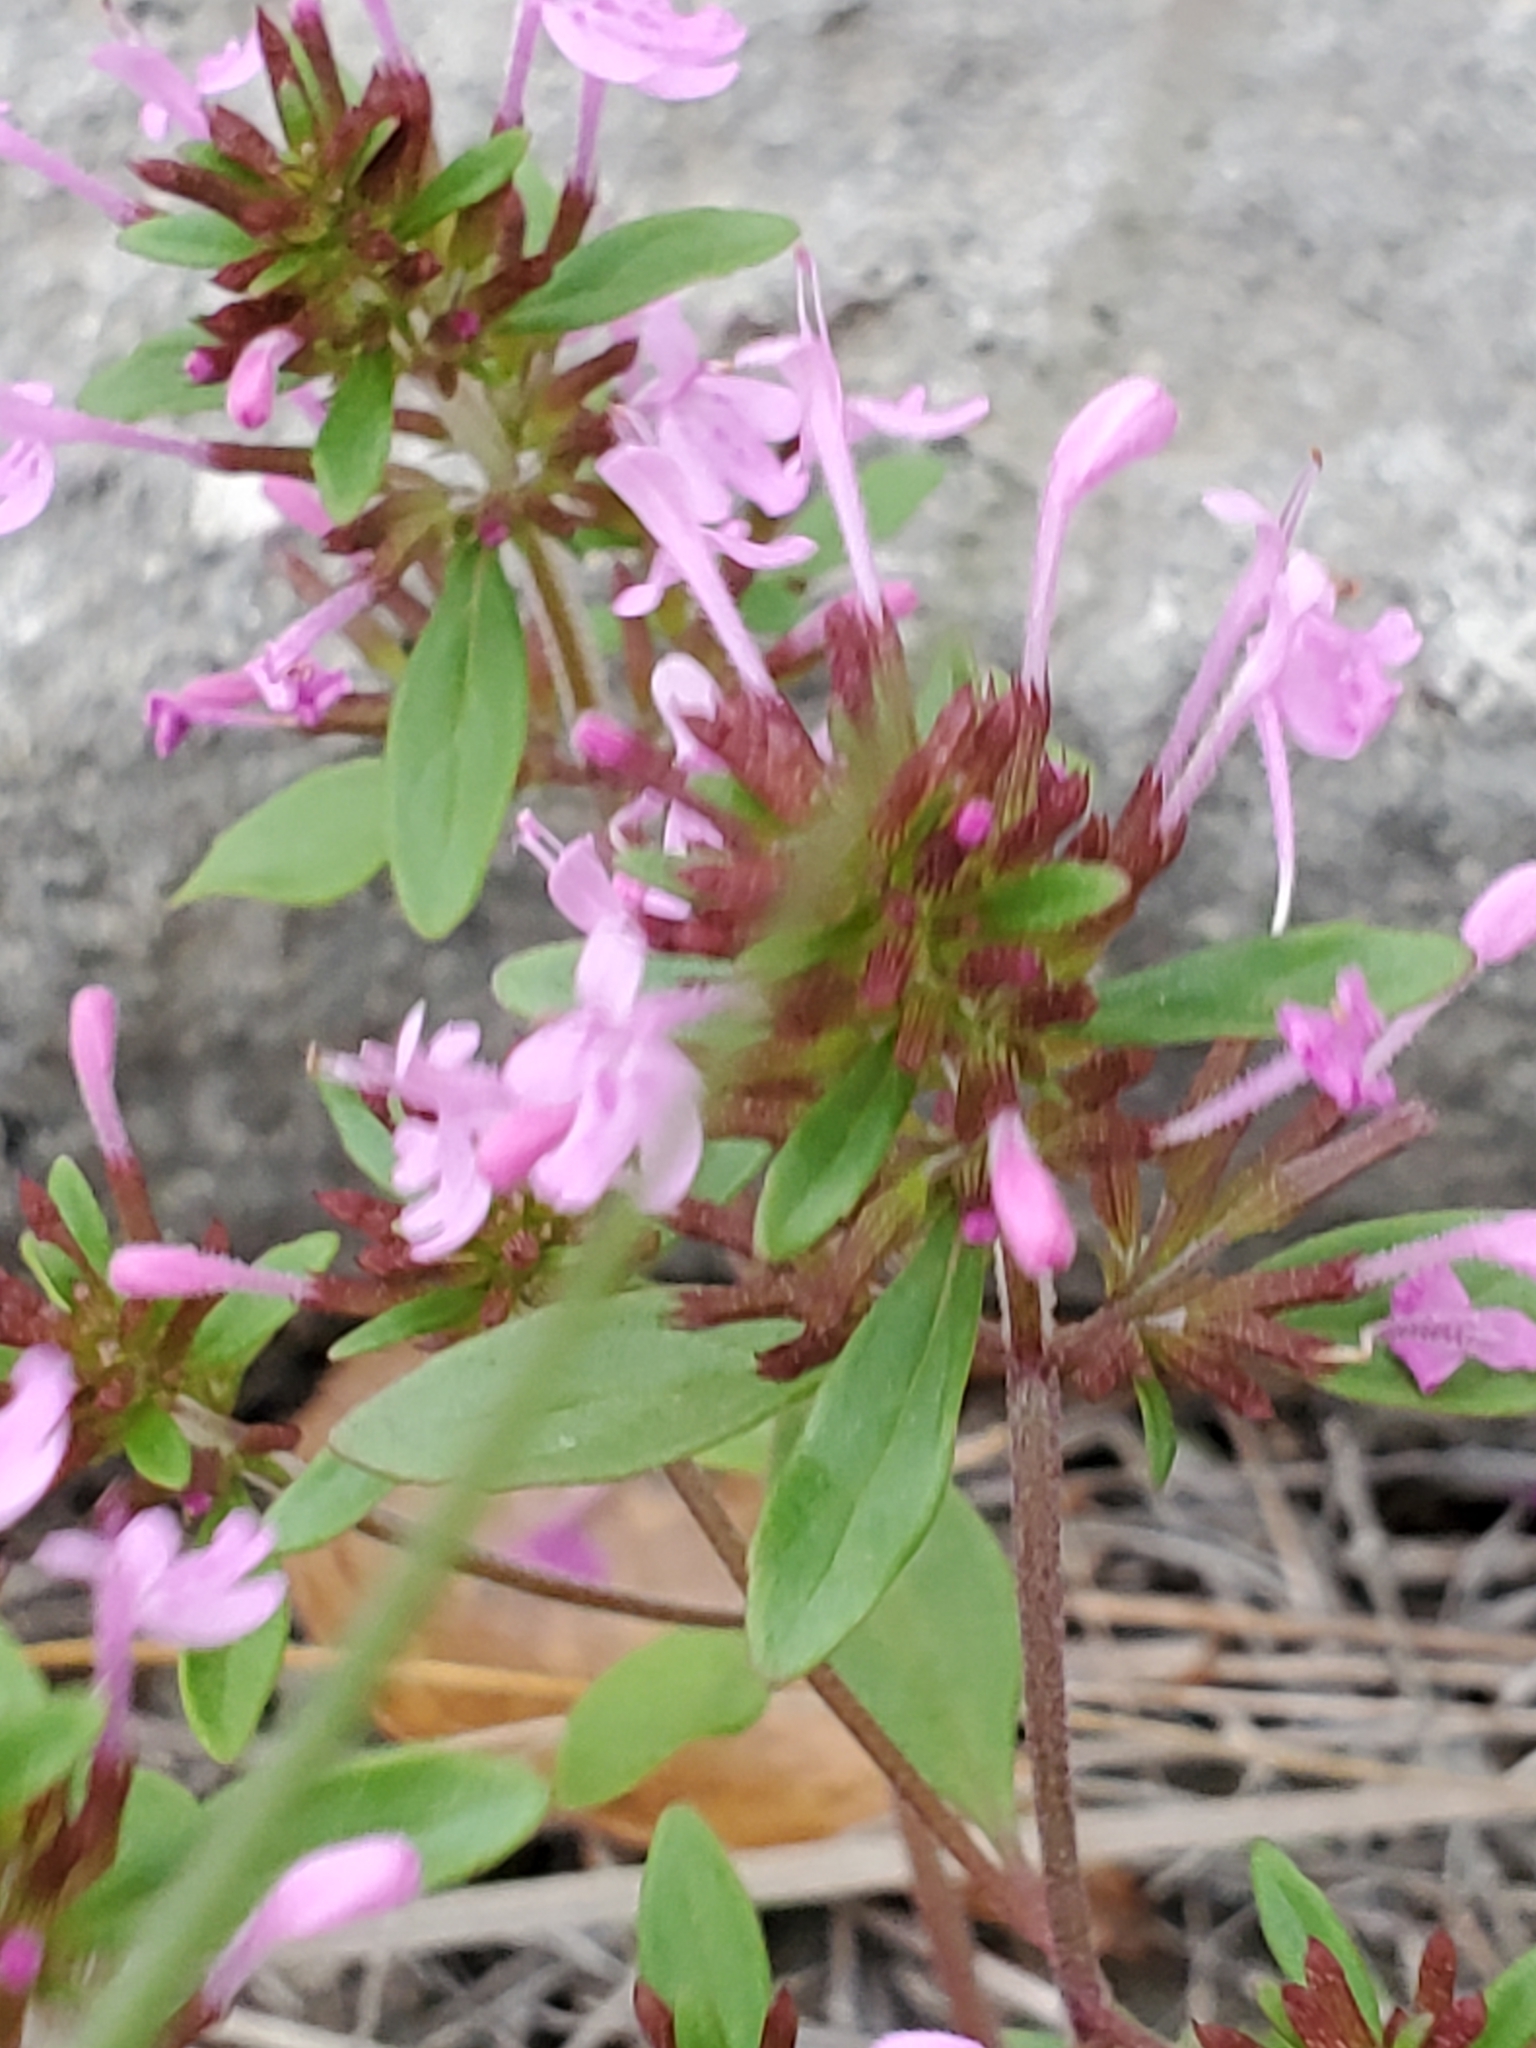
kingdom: Plantae
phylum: Tracheophyta
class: Magnoliopsida
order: Lamiales
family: Lamiaceae
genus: Hedeoma
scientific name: Hedeoma acinoides
